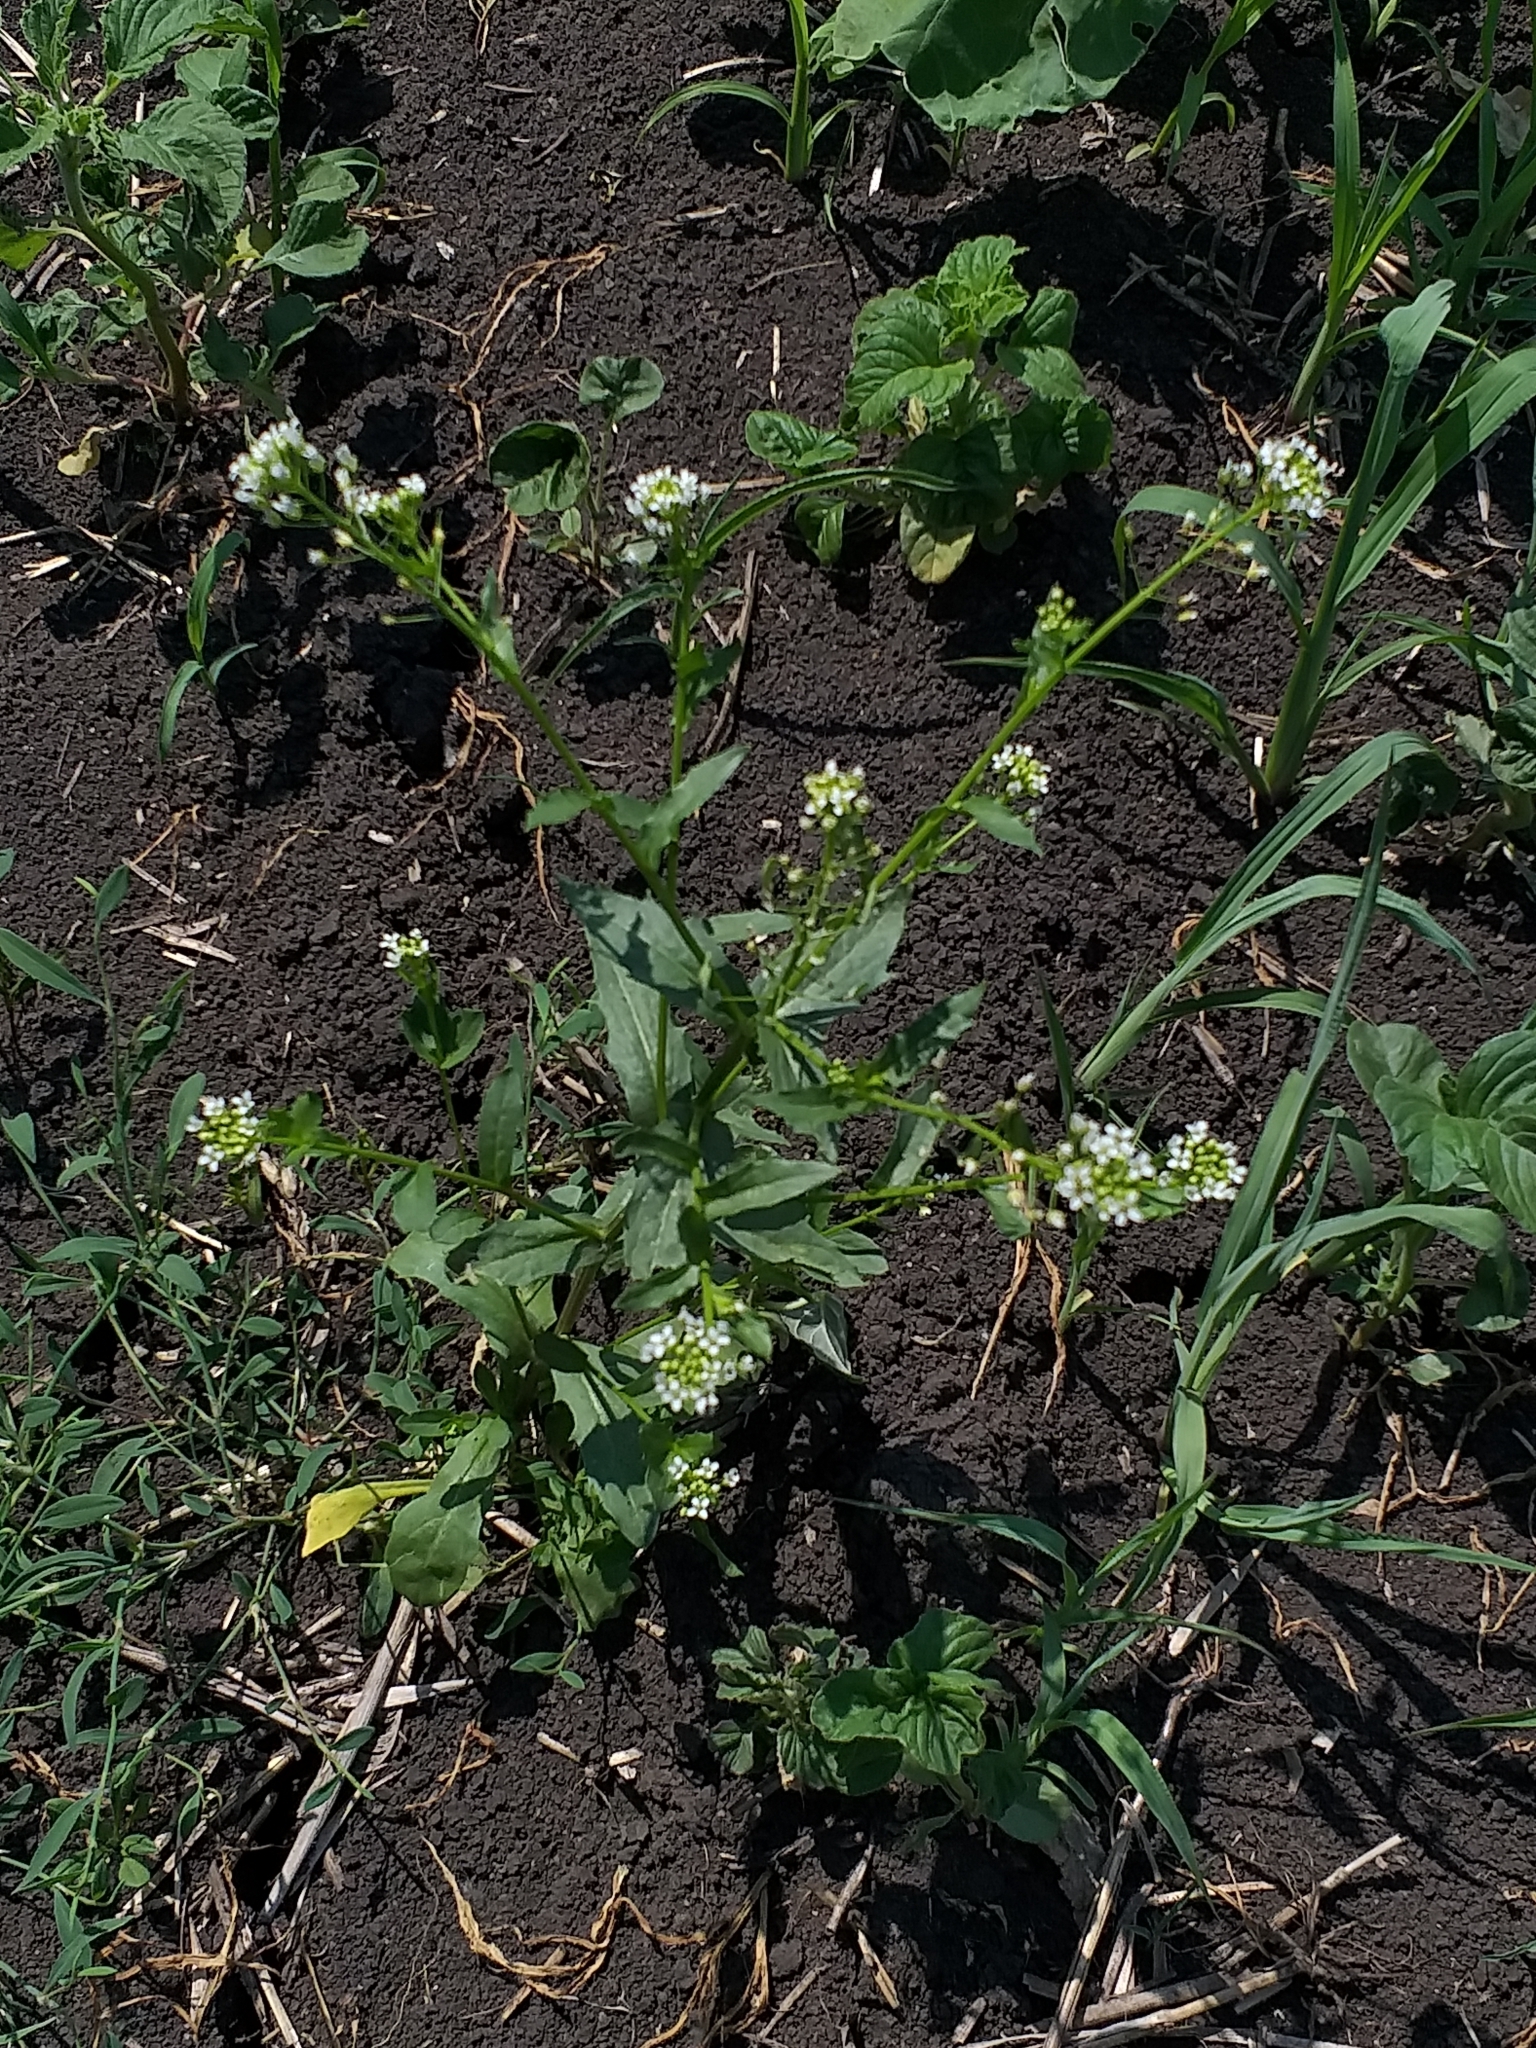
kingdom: Plantae
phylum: Tracheophyta
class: Magnoliopsida
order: Brassicales
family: Brassicaceae
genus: Thlaspi
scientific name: Thlaspi arvense
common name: Field pennycress
